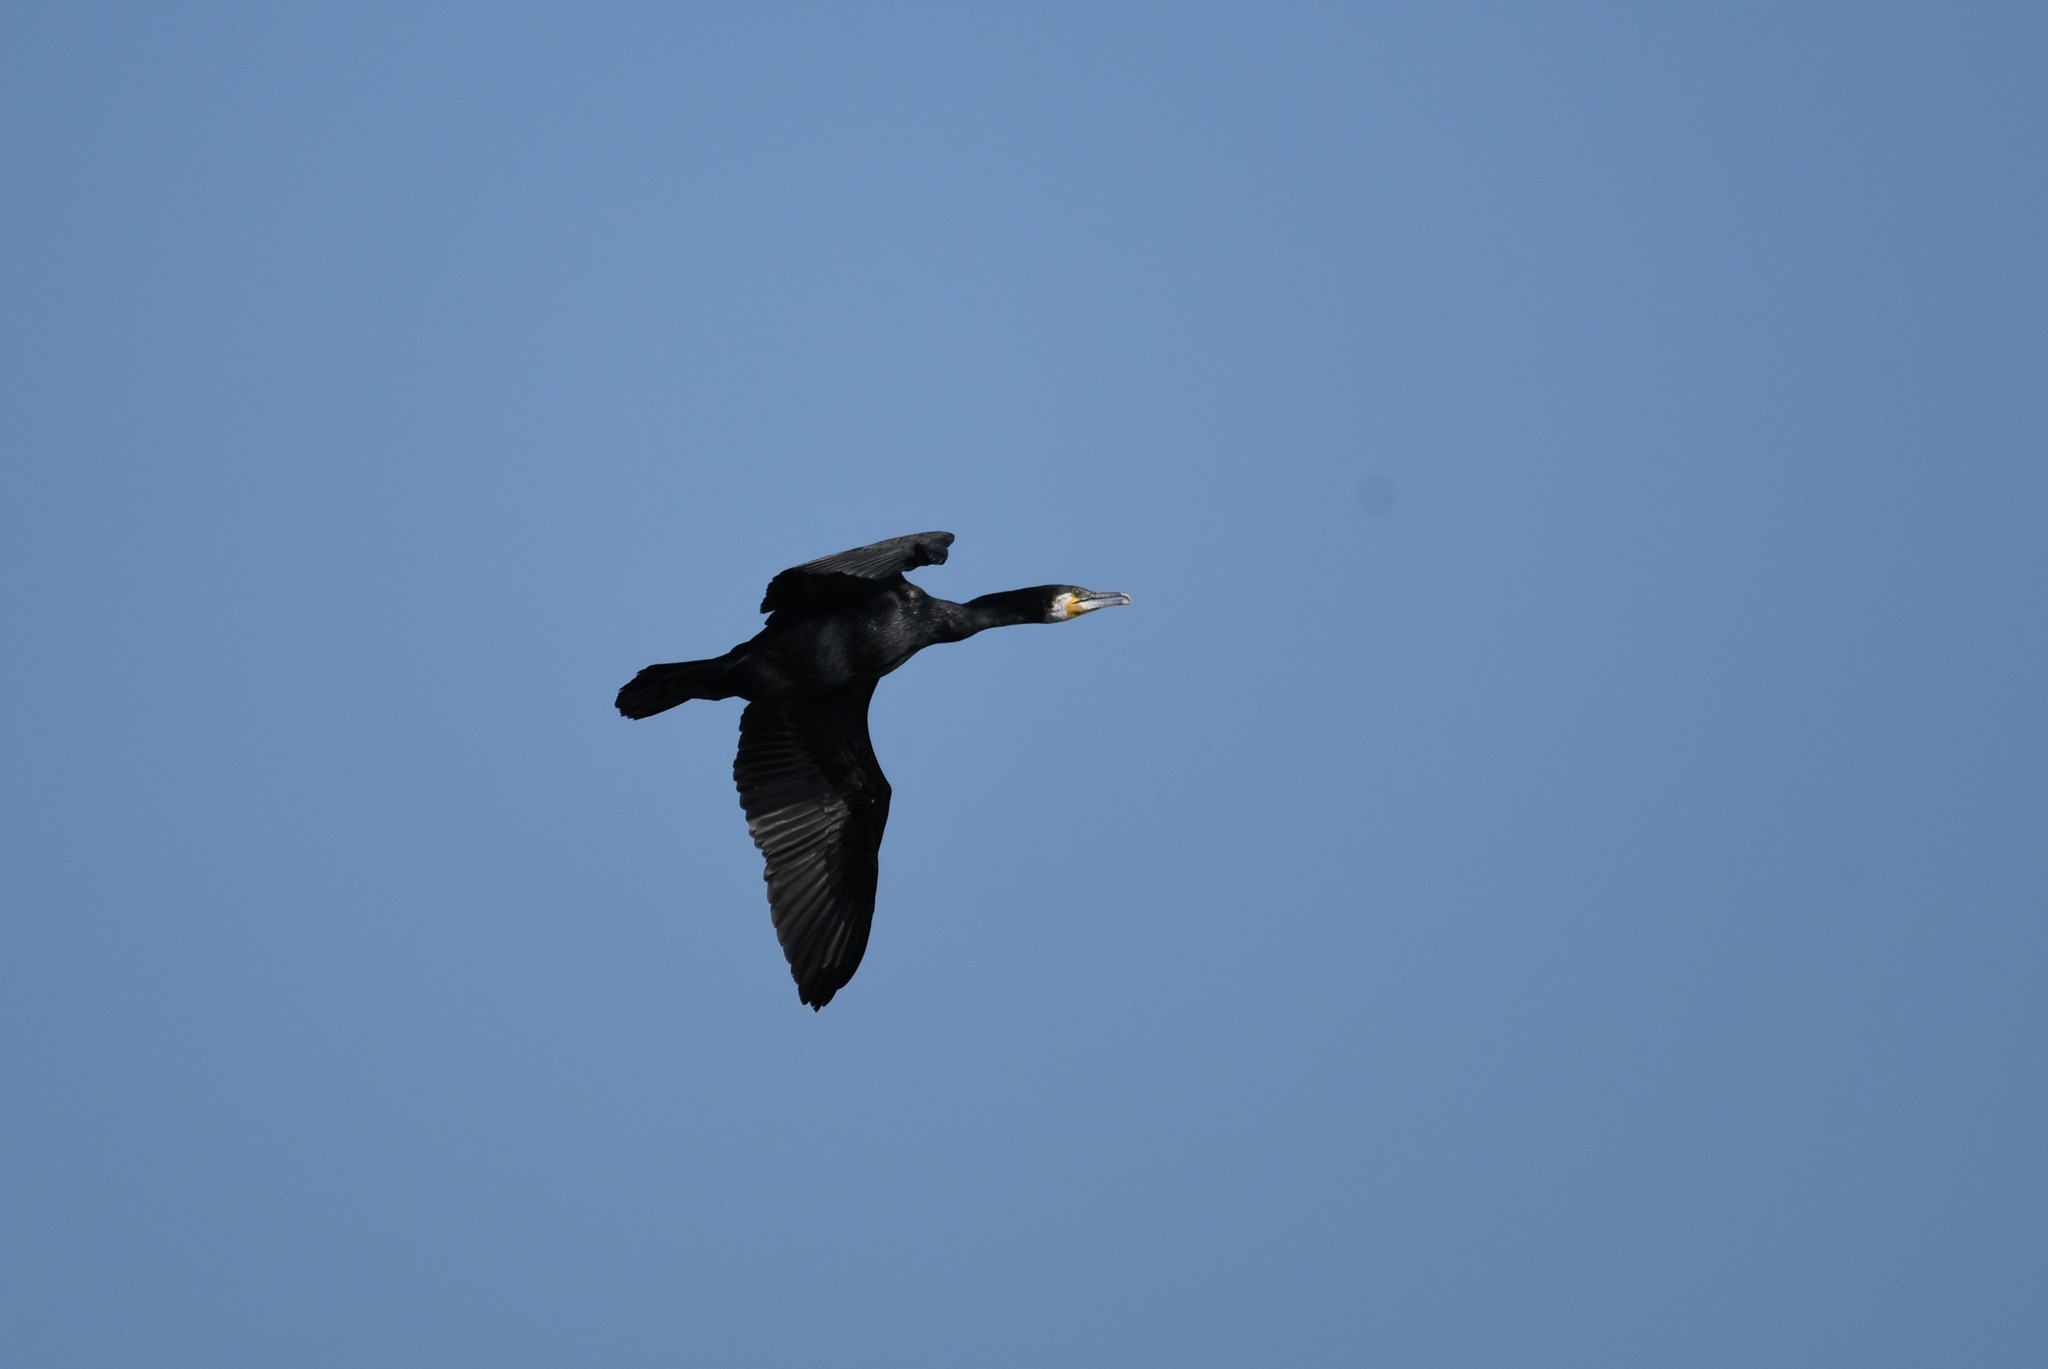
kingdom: Animalia
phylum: Chordata
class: Aves
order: Suliformes
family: Phalacrocoracidae
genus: Phalacrocorax
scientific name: Phalacrocorax carbo
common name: Great cormorant
